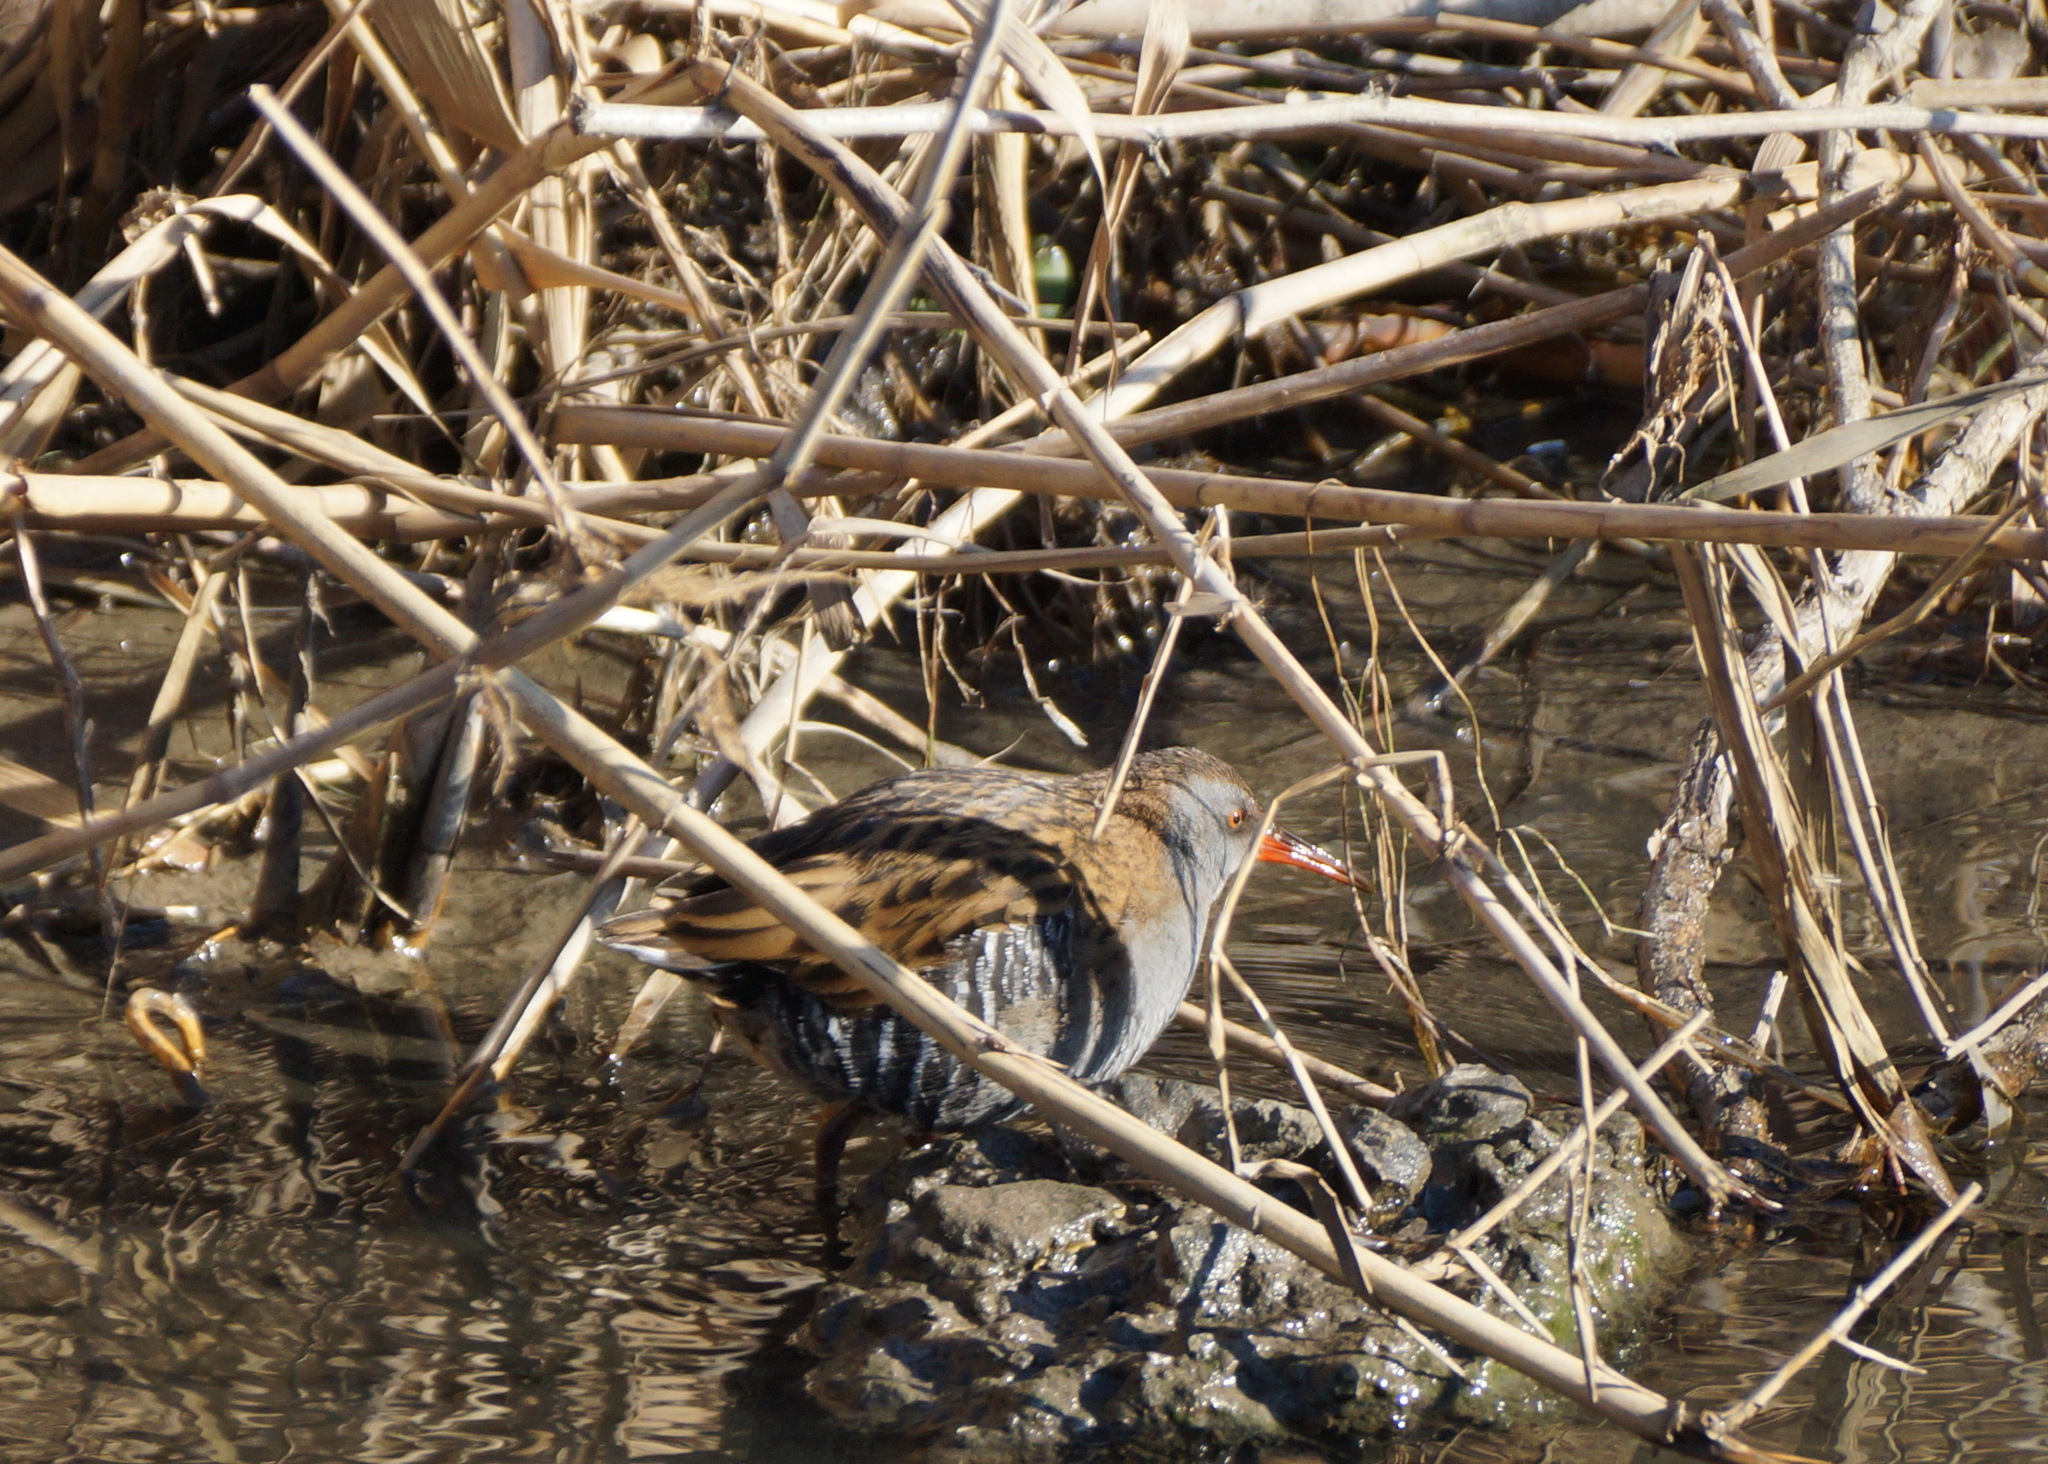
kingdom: Animalia
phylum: Chordata
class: Aves
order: Gruiformes
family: Rallidae
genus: Rallus
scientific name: Rallus aquaticus
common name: Water rail
